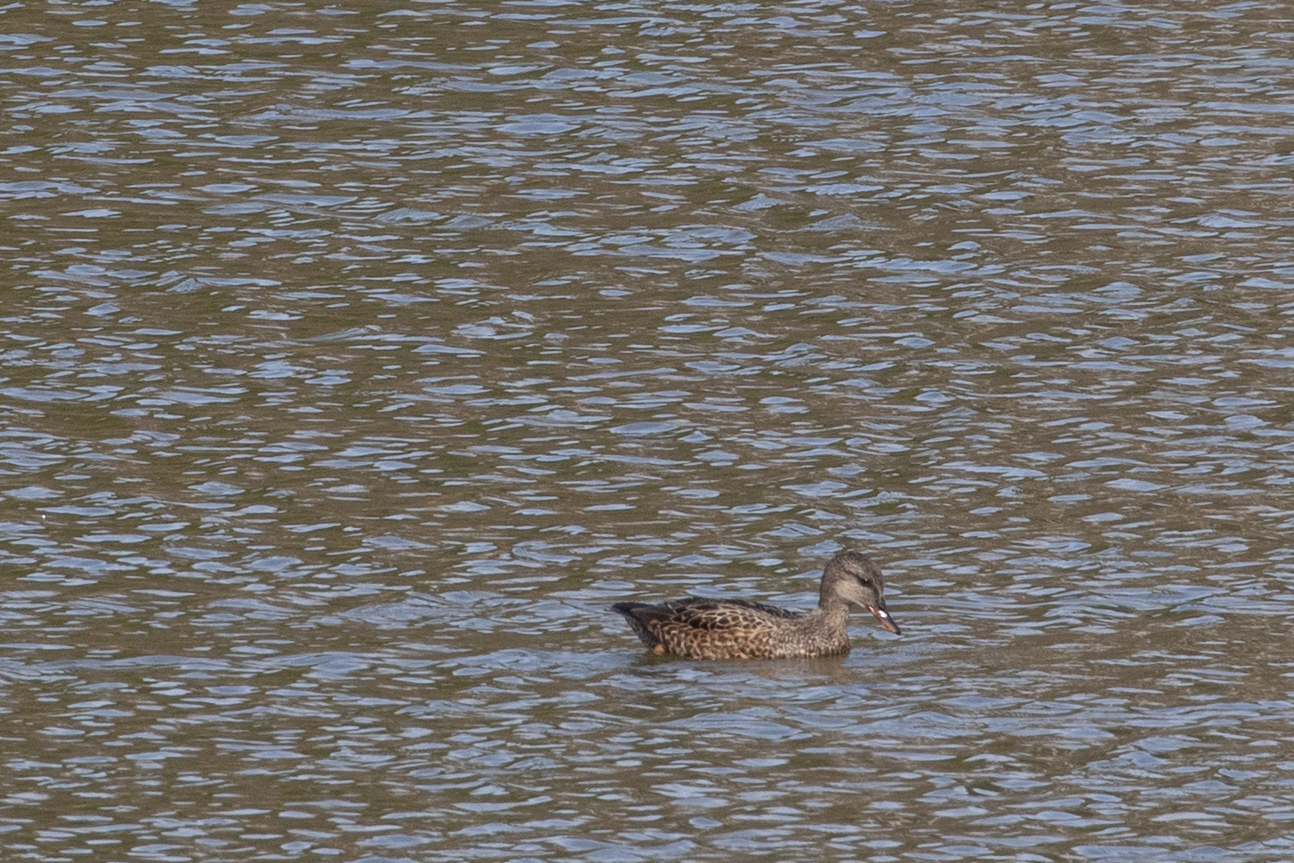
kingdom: Animalia
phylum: Chordata
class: Aves
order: Anseriformes
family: Anatidae
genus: Mareca
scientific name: Mareca strepera
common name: Gadwall
